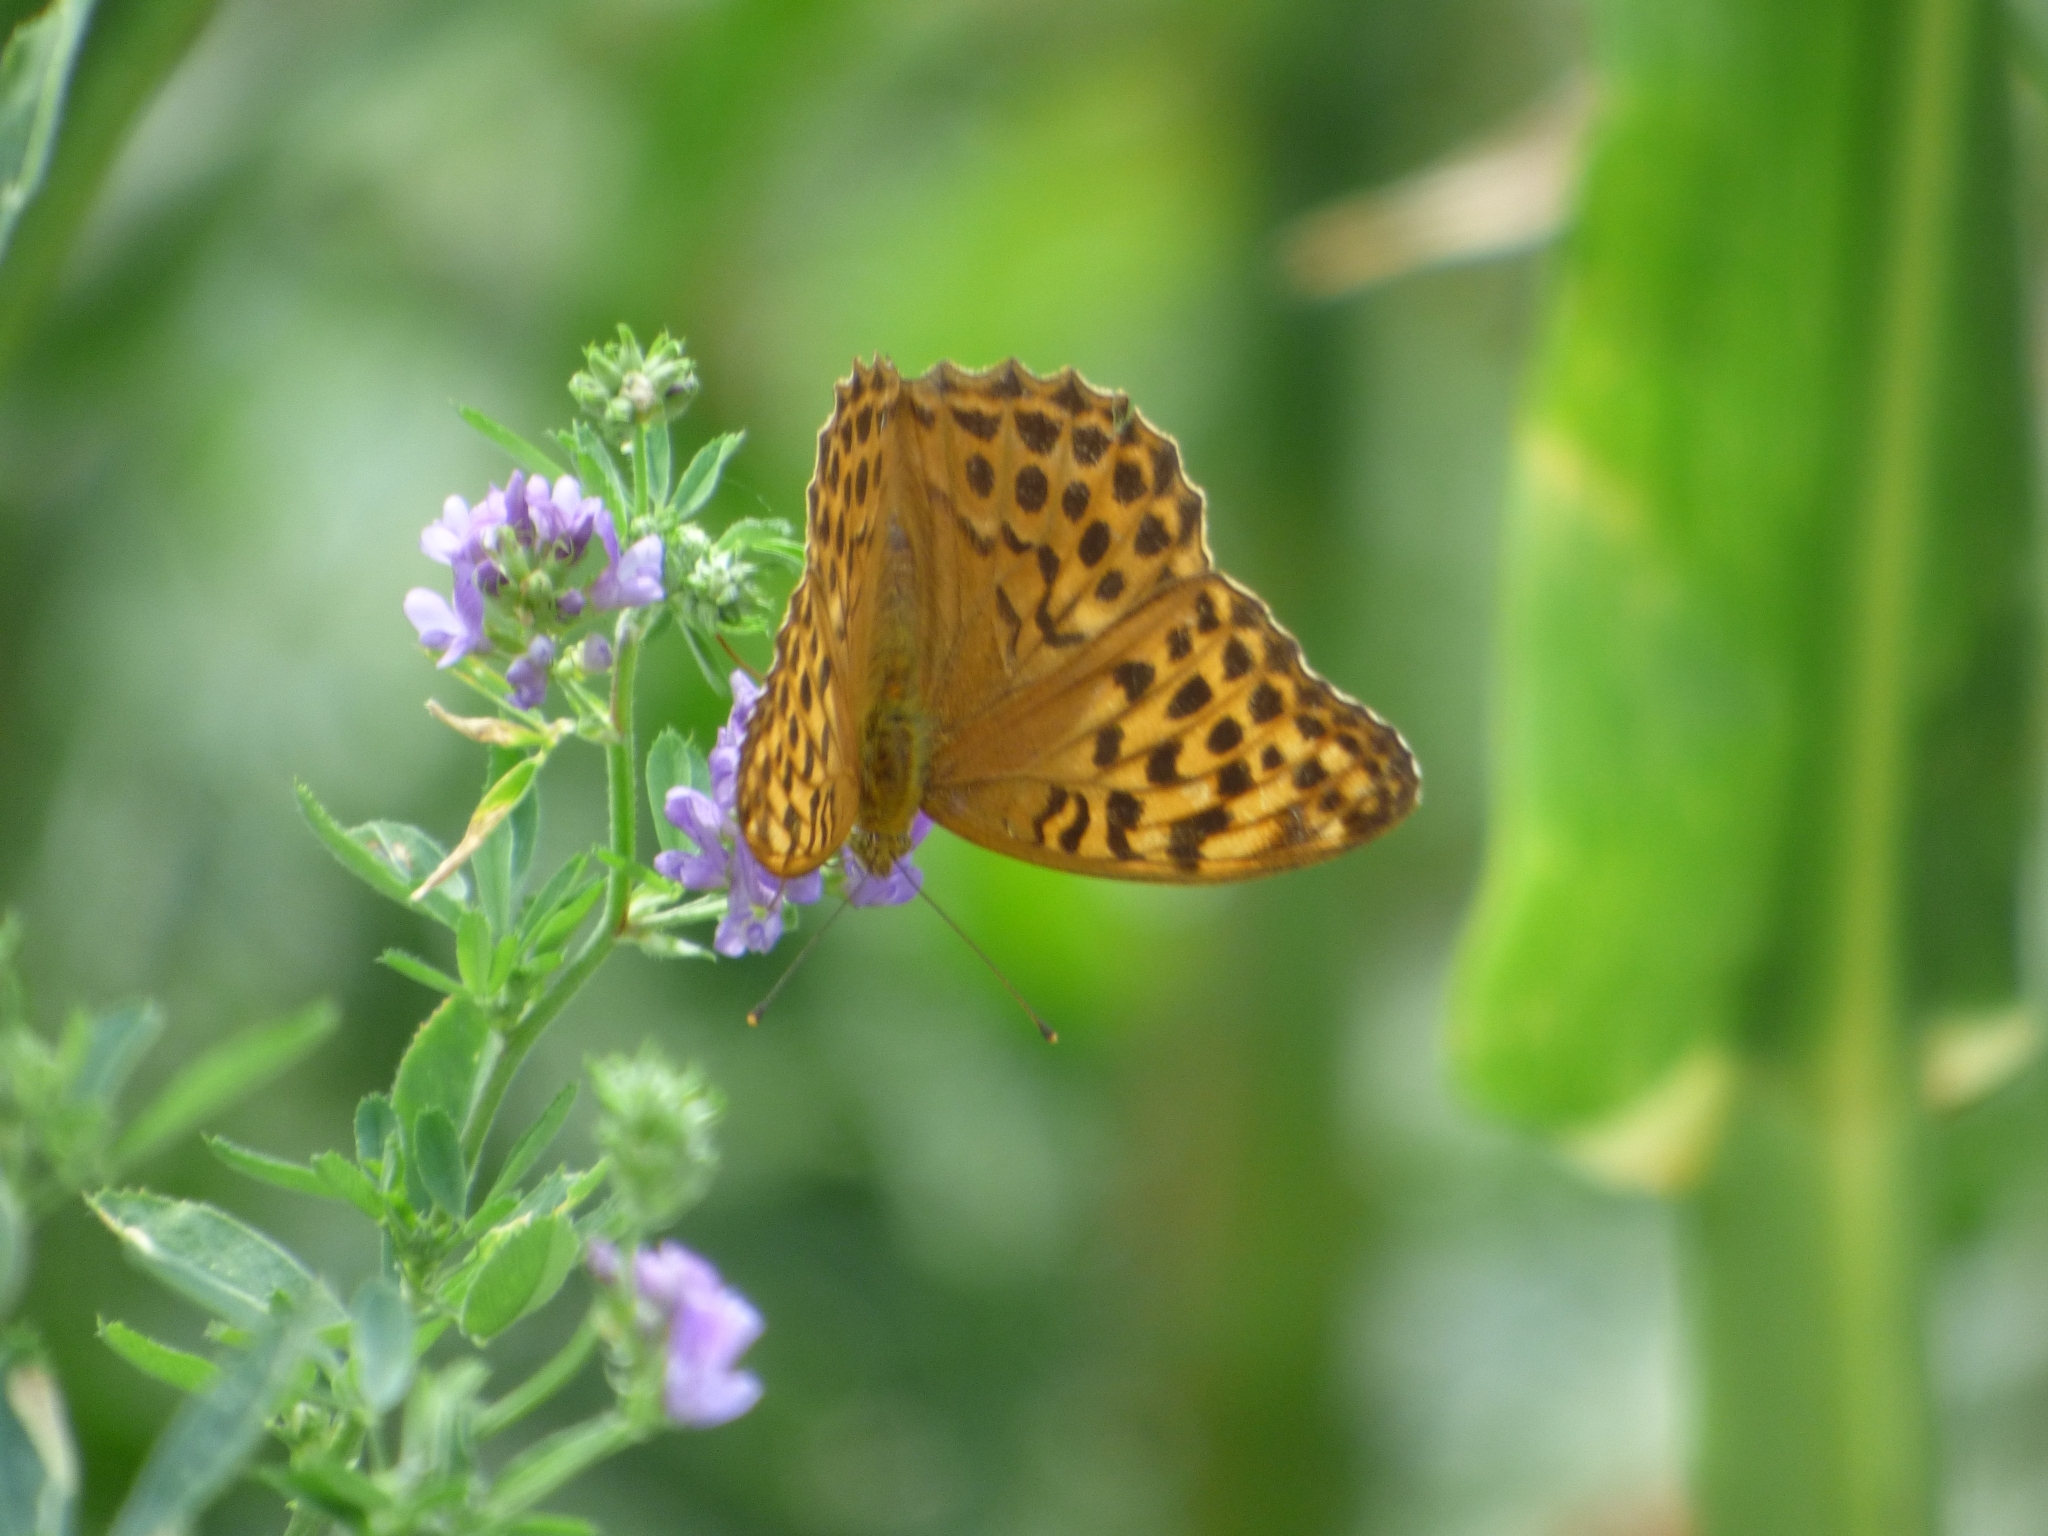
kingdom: Animalia
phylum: Arthropoda
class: Insecta
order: Lepidoptera
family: Nymphalidae
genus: Argynnis
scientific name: Argynnis paphia
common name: Silver-washed fritillary
